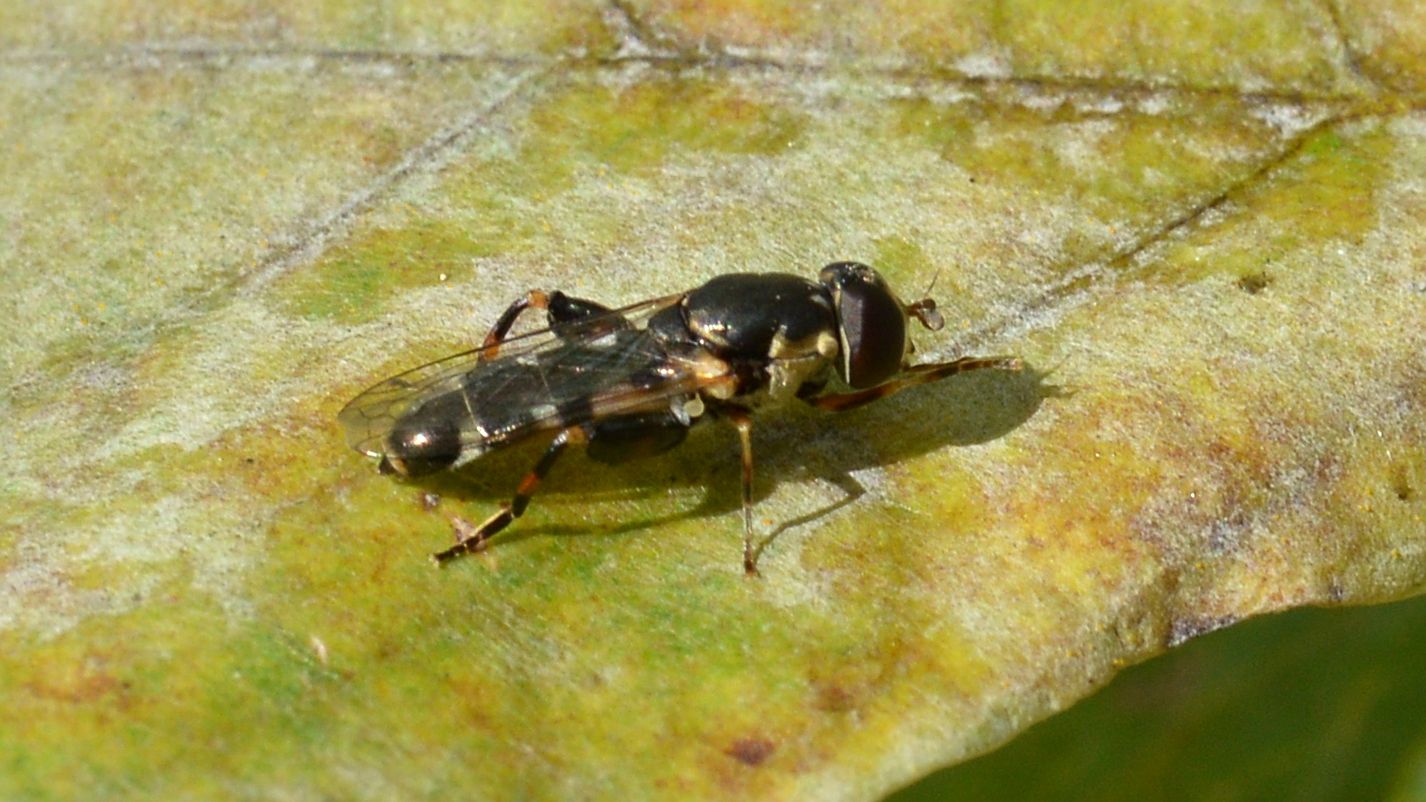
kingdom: Animalia
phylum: Arthropoda
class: Insecta
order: Diptera
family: Syrphidae
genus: Syritta
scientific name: Syritta pipiens
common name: Hover fly
